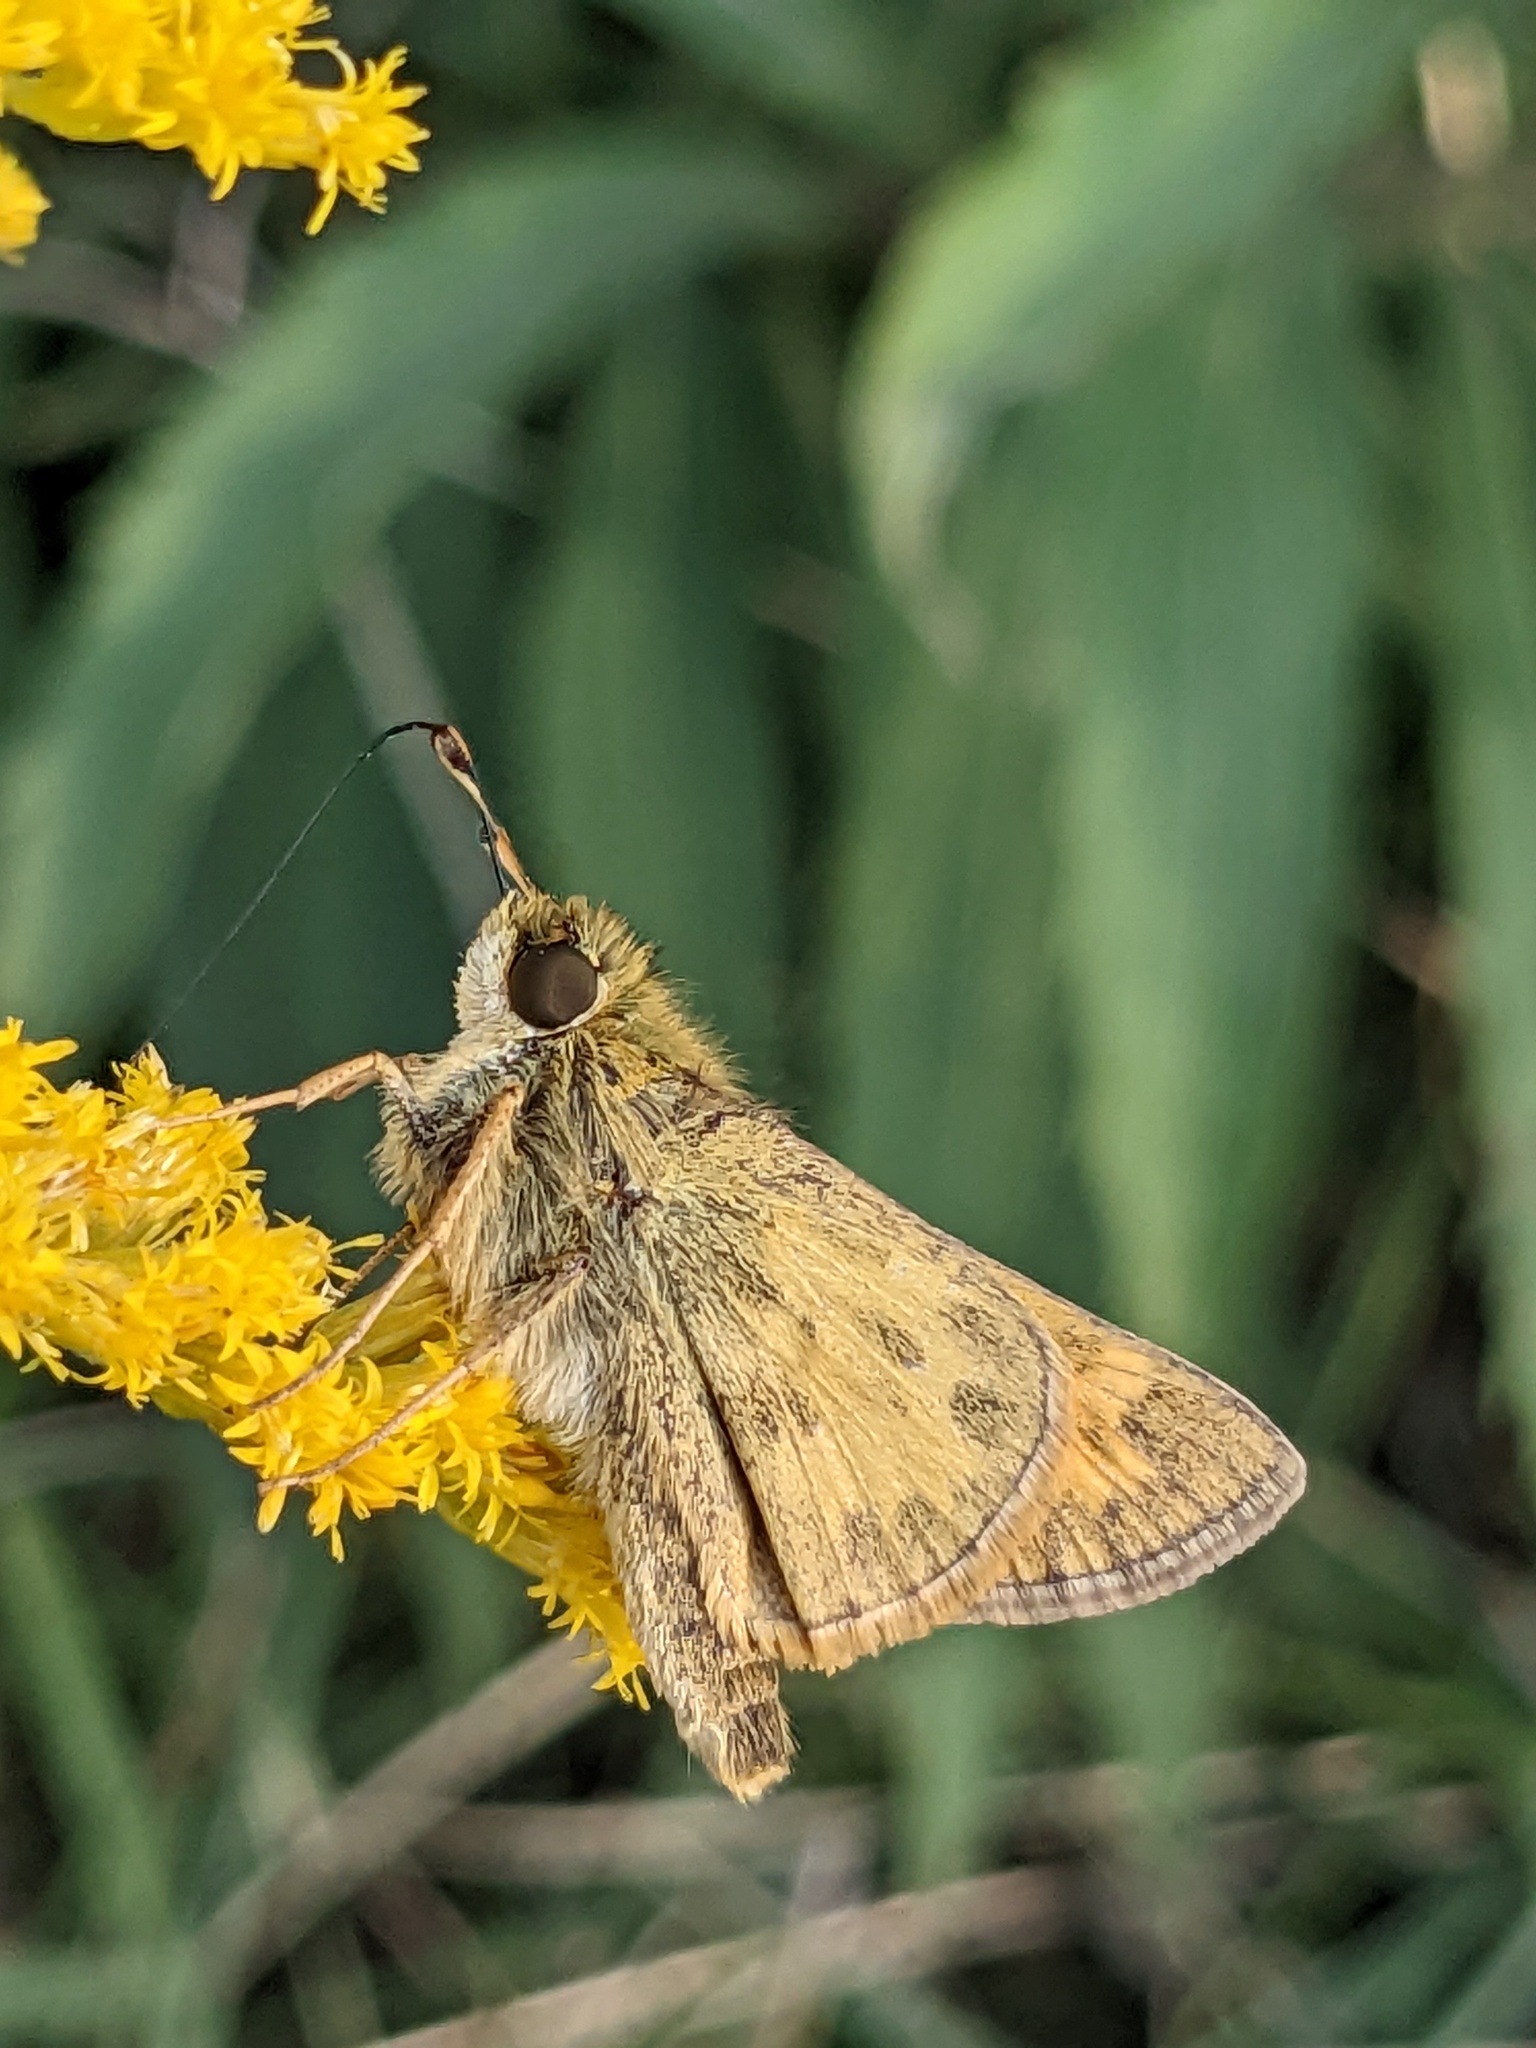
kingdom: Animalia
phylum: Arthropoda
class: Insecta
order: Lepidoptera
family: Hesperiidae
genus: Atalopedes
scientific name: Atalopedes
